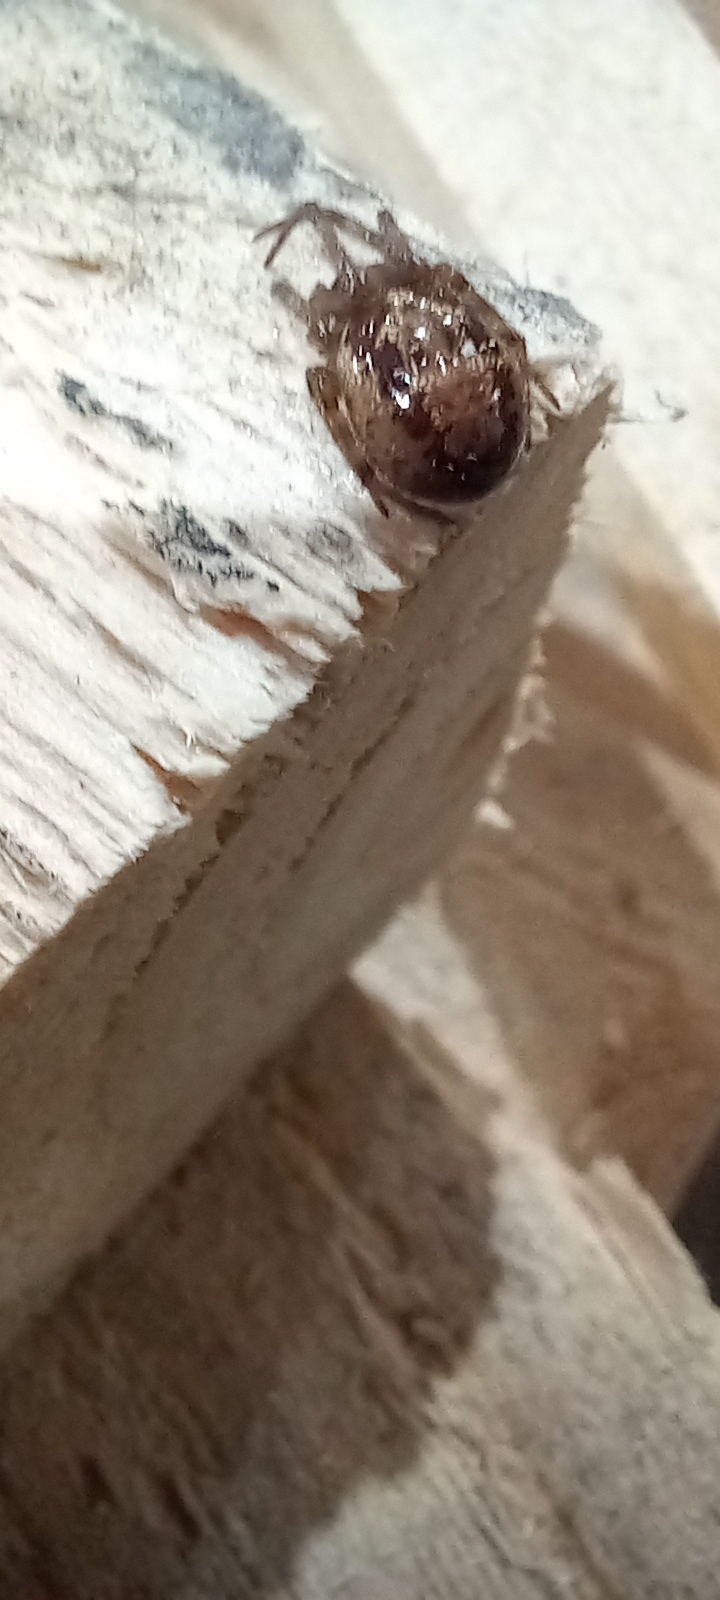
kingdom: Animalia
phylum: Arthropoda
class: Arachnida
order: Araneae
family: Theridiidae
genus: Steatoda
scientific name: Steatoda nobilis
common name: Cobweb weaver
